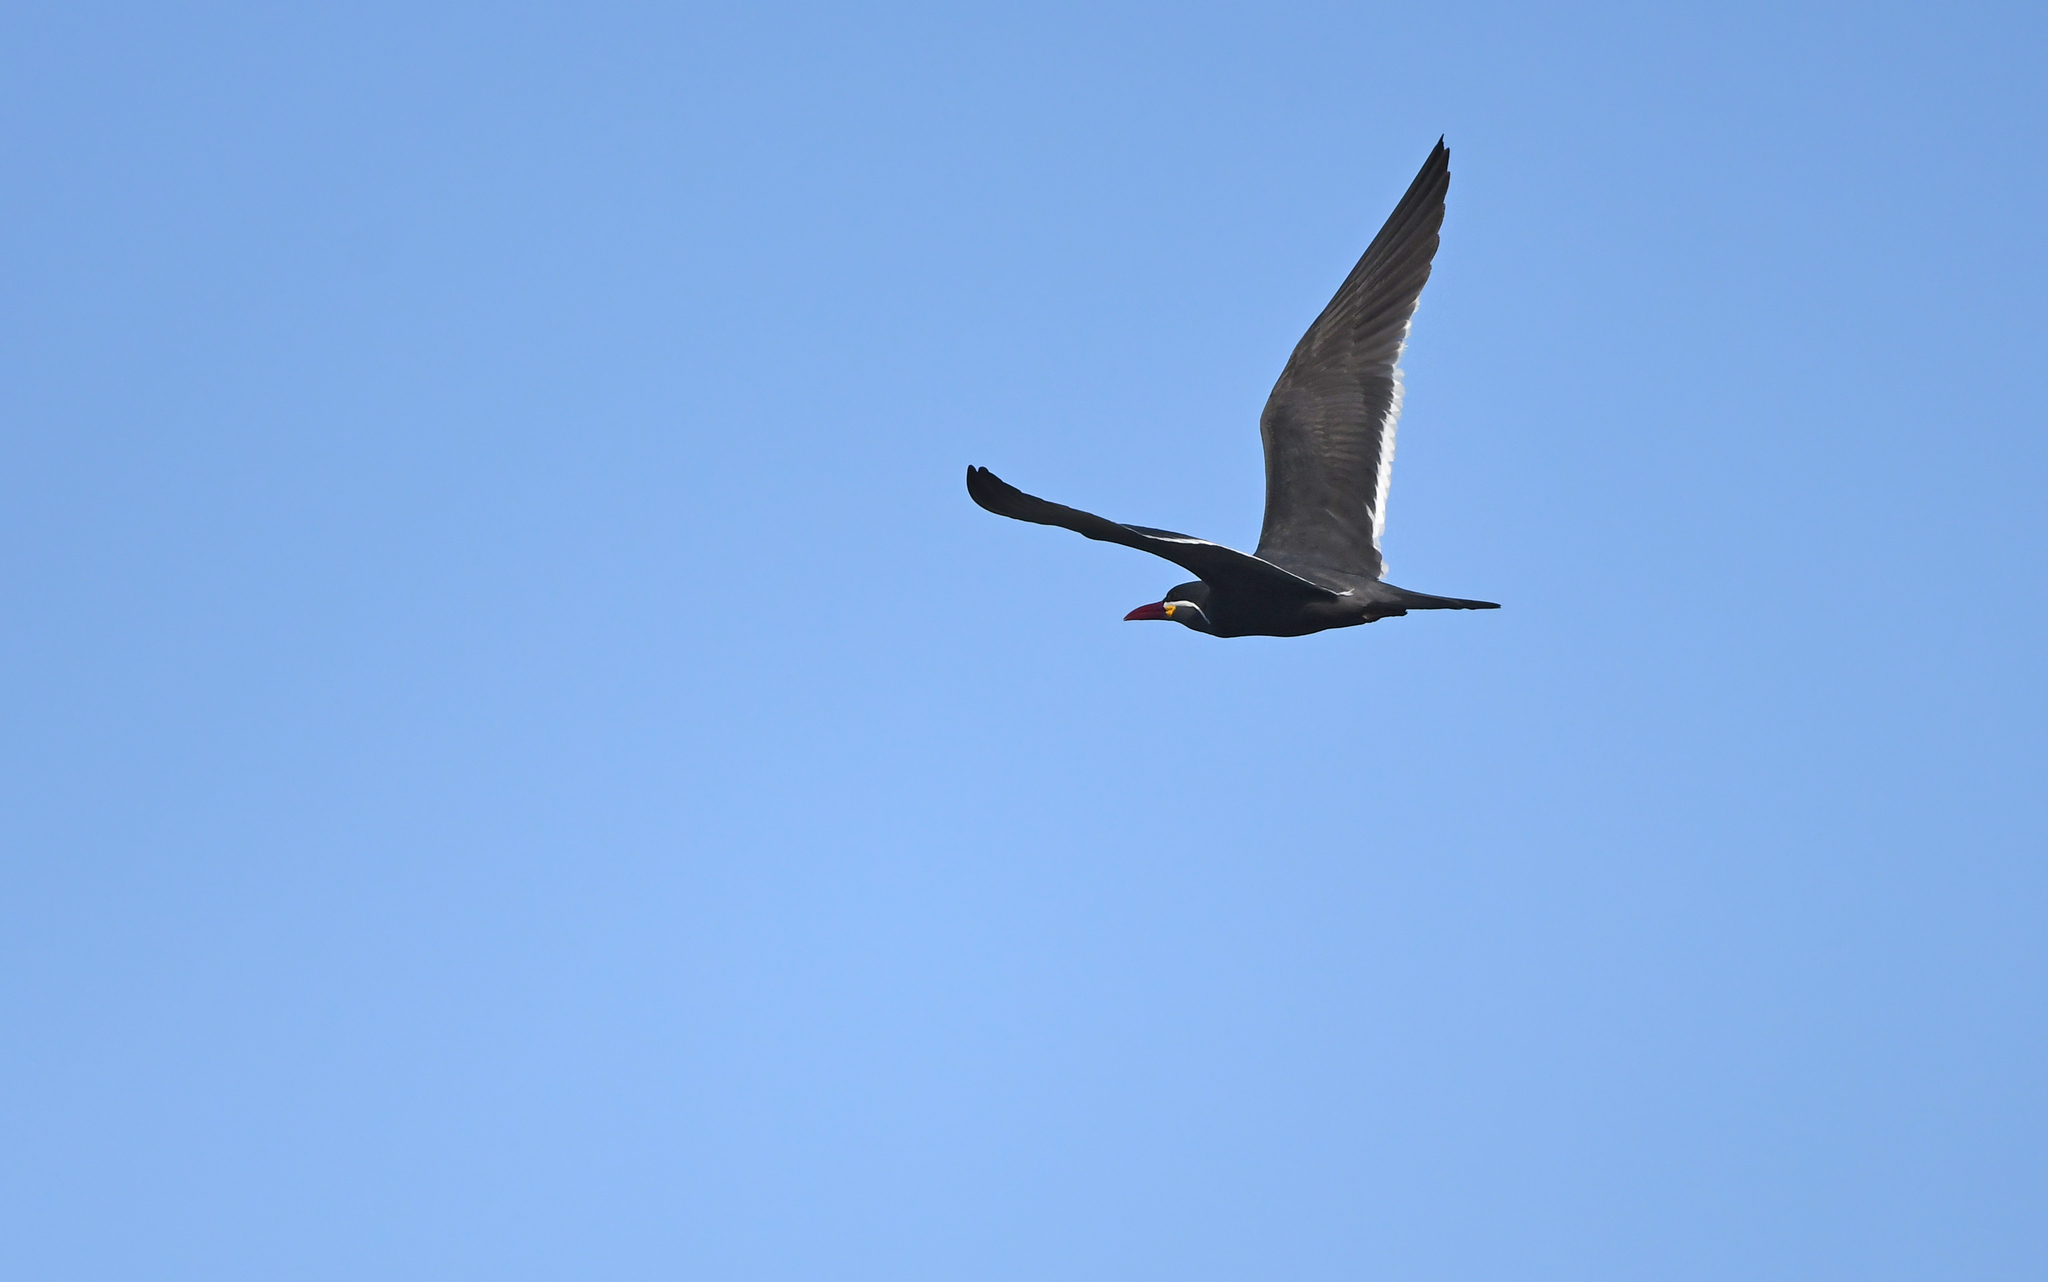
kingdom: Animalia
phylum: Chordata
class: Aves
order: Charadriiformes
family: Laridae
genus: Larosterna
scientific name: Larosterna inca
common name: Inca tern
